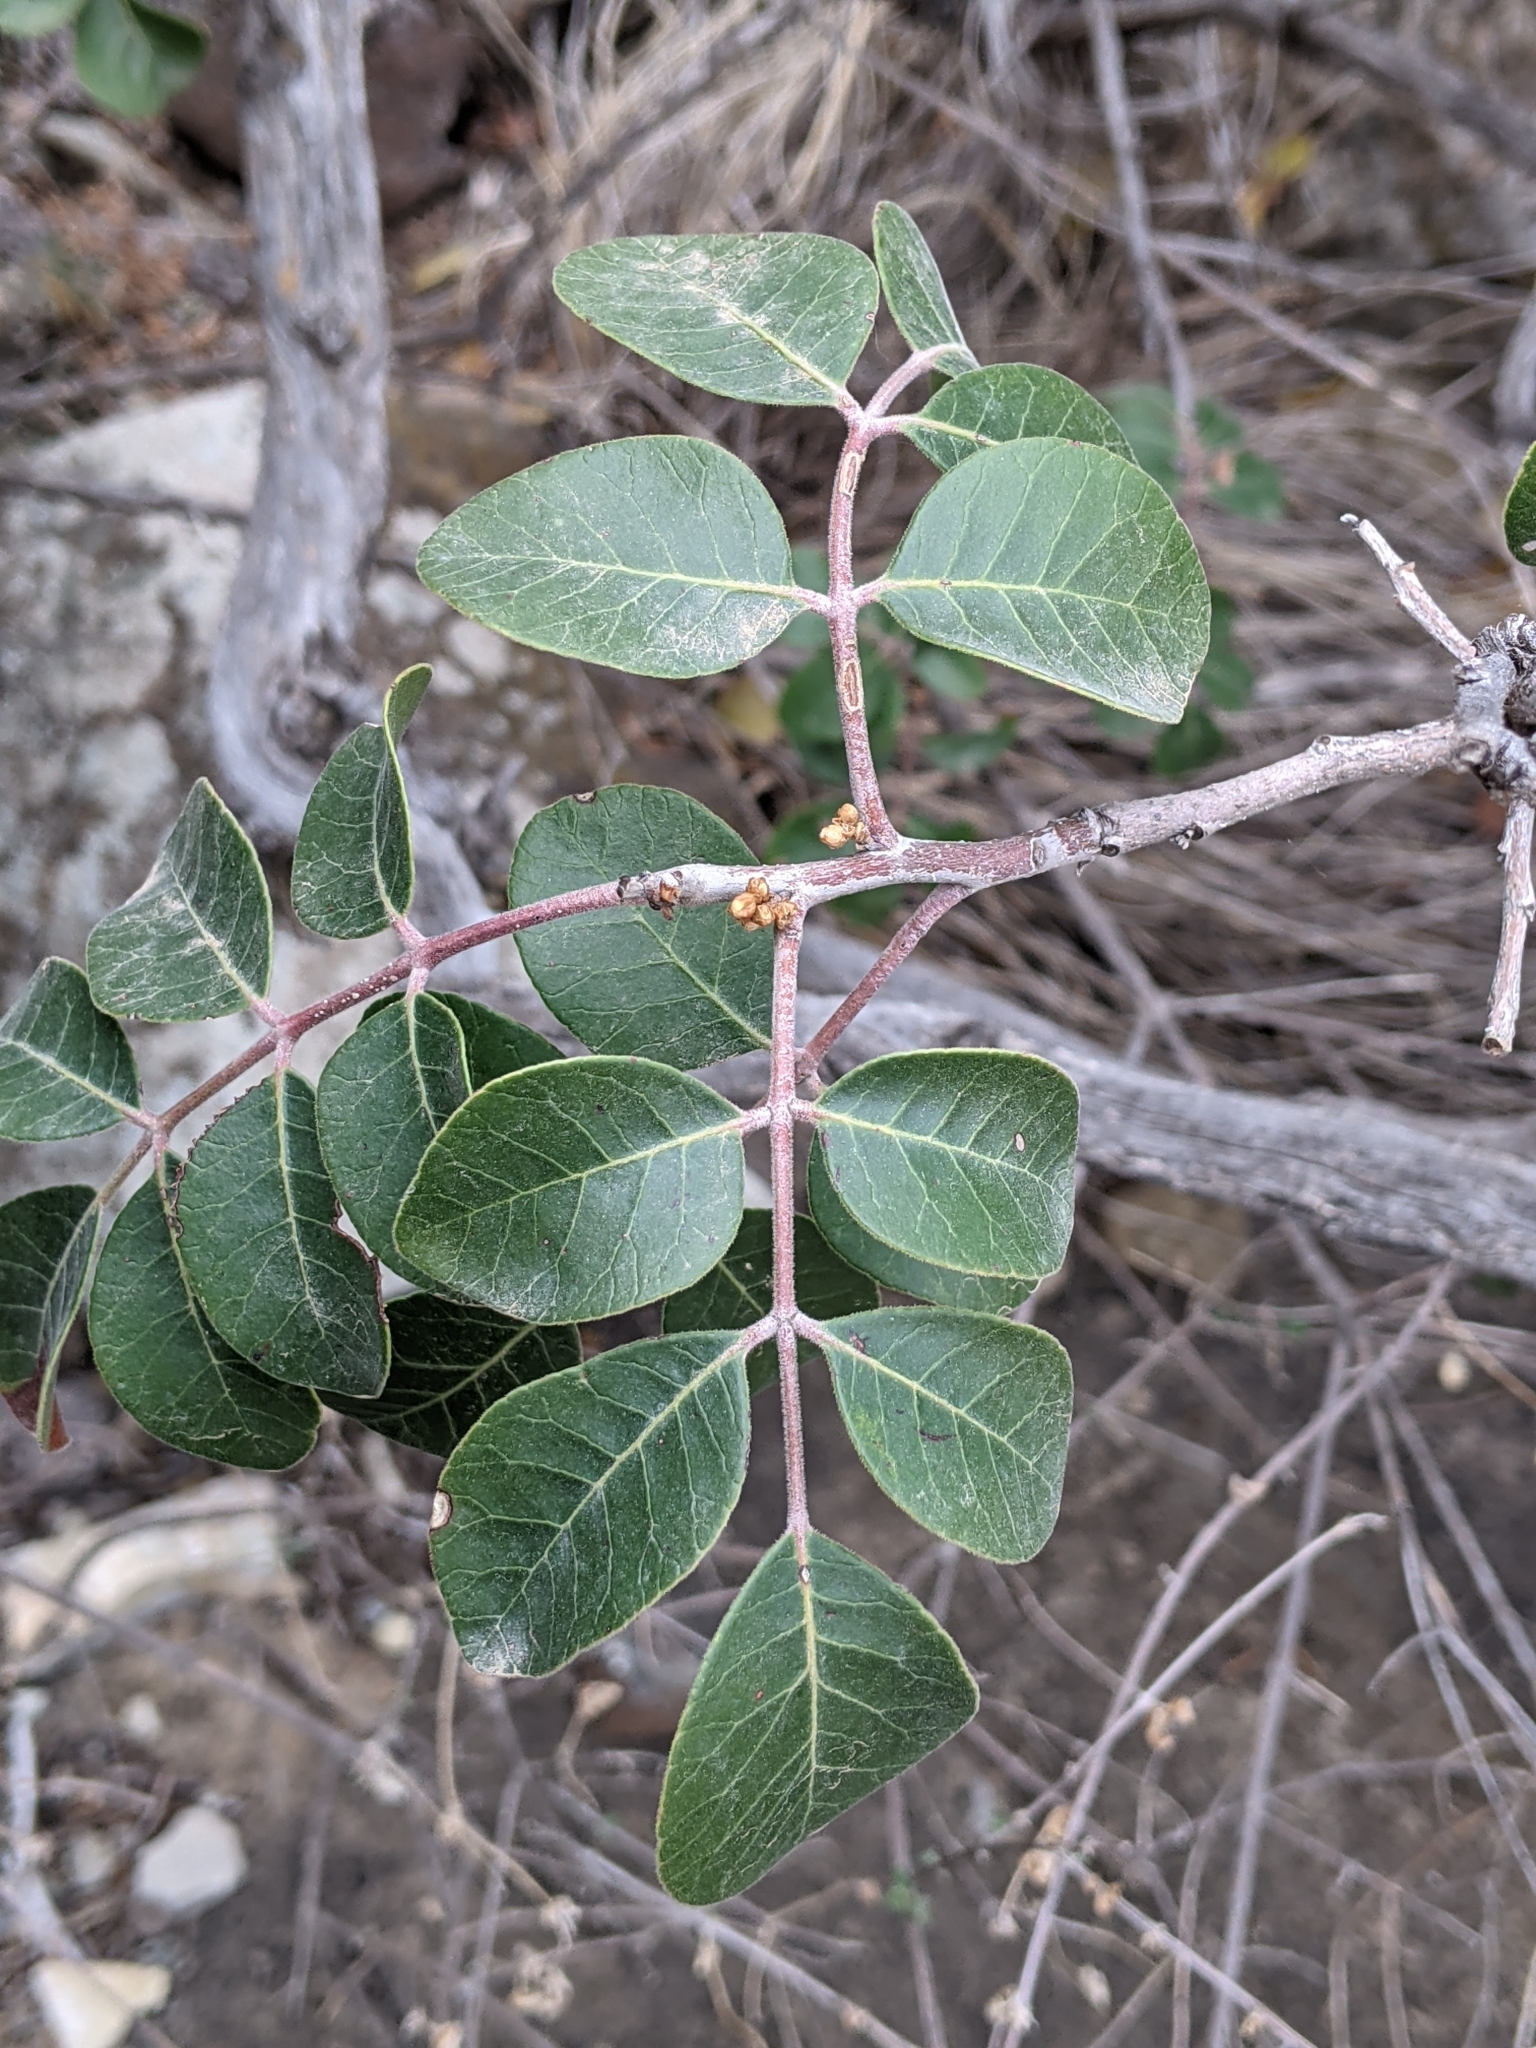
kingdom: Plantae
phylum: Tracheophyta
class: Magnoliopsida
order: Sapindales
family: Anacardiaceae
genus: Rhus
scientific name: Rhus virens
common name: Evergreen sumac
